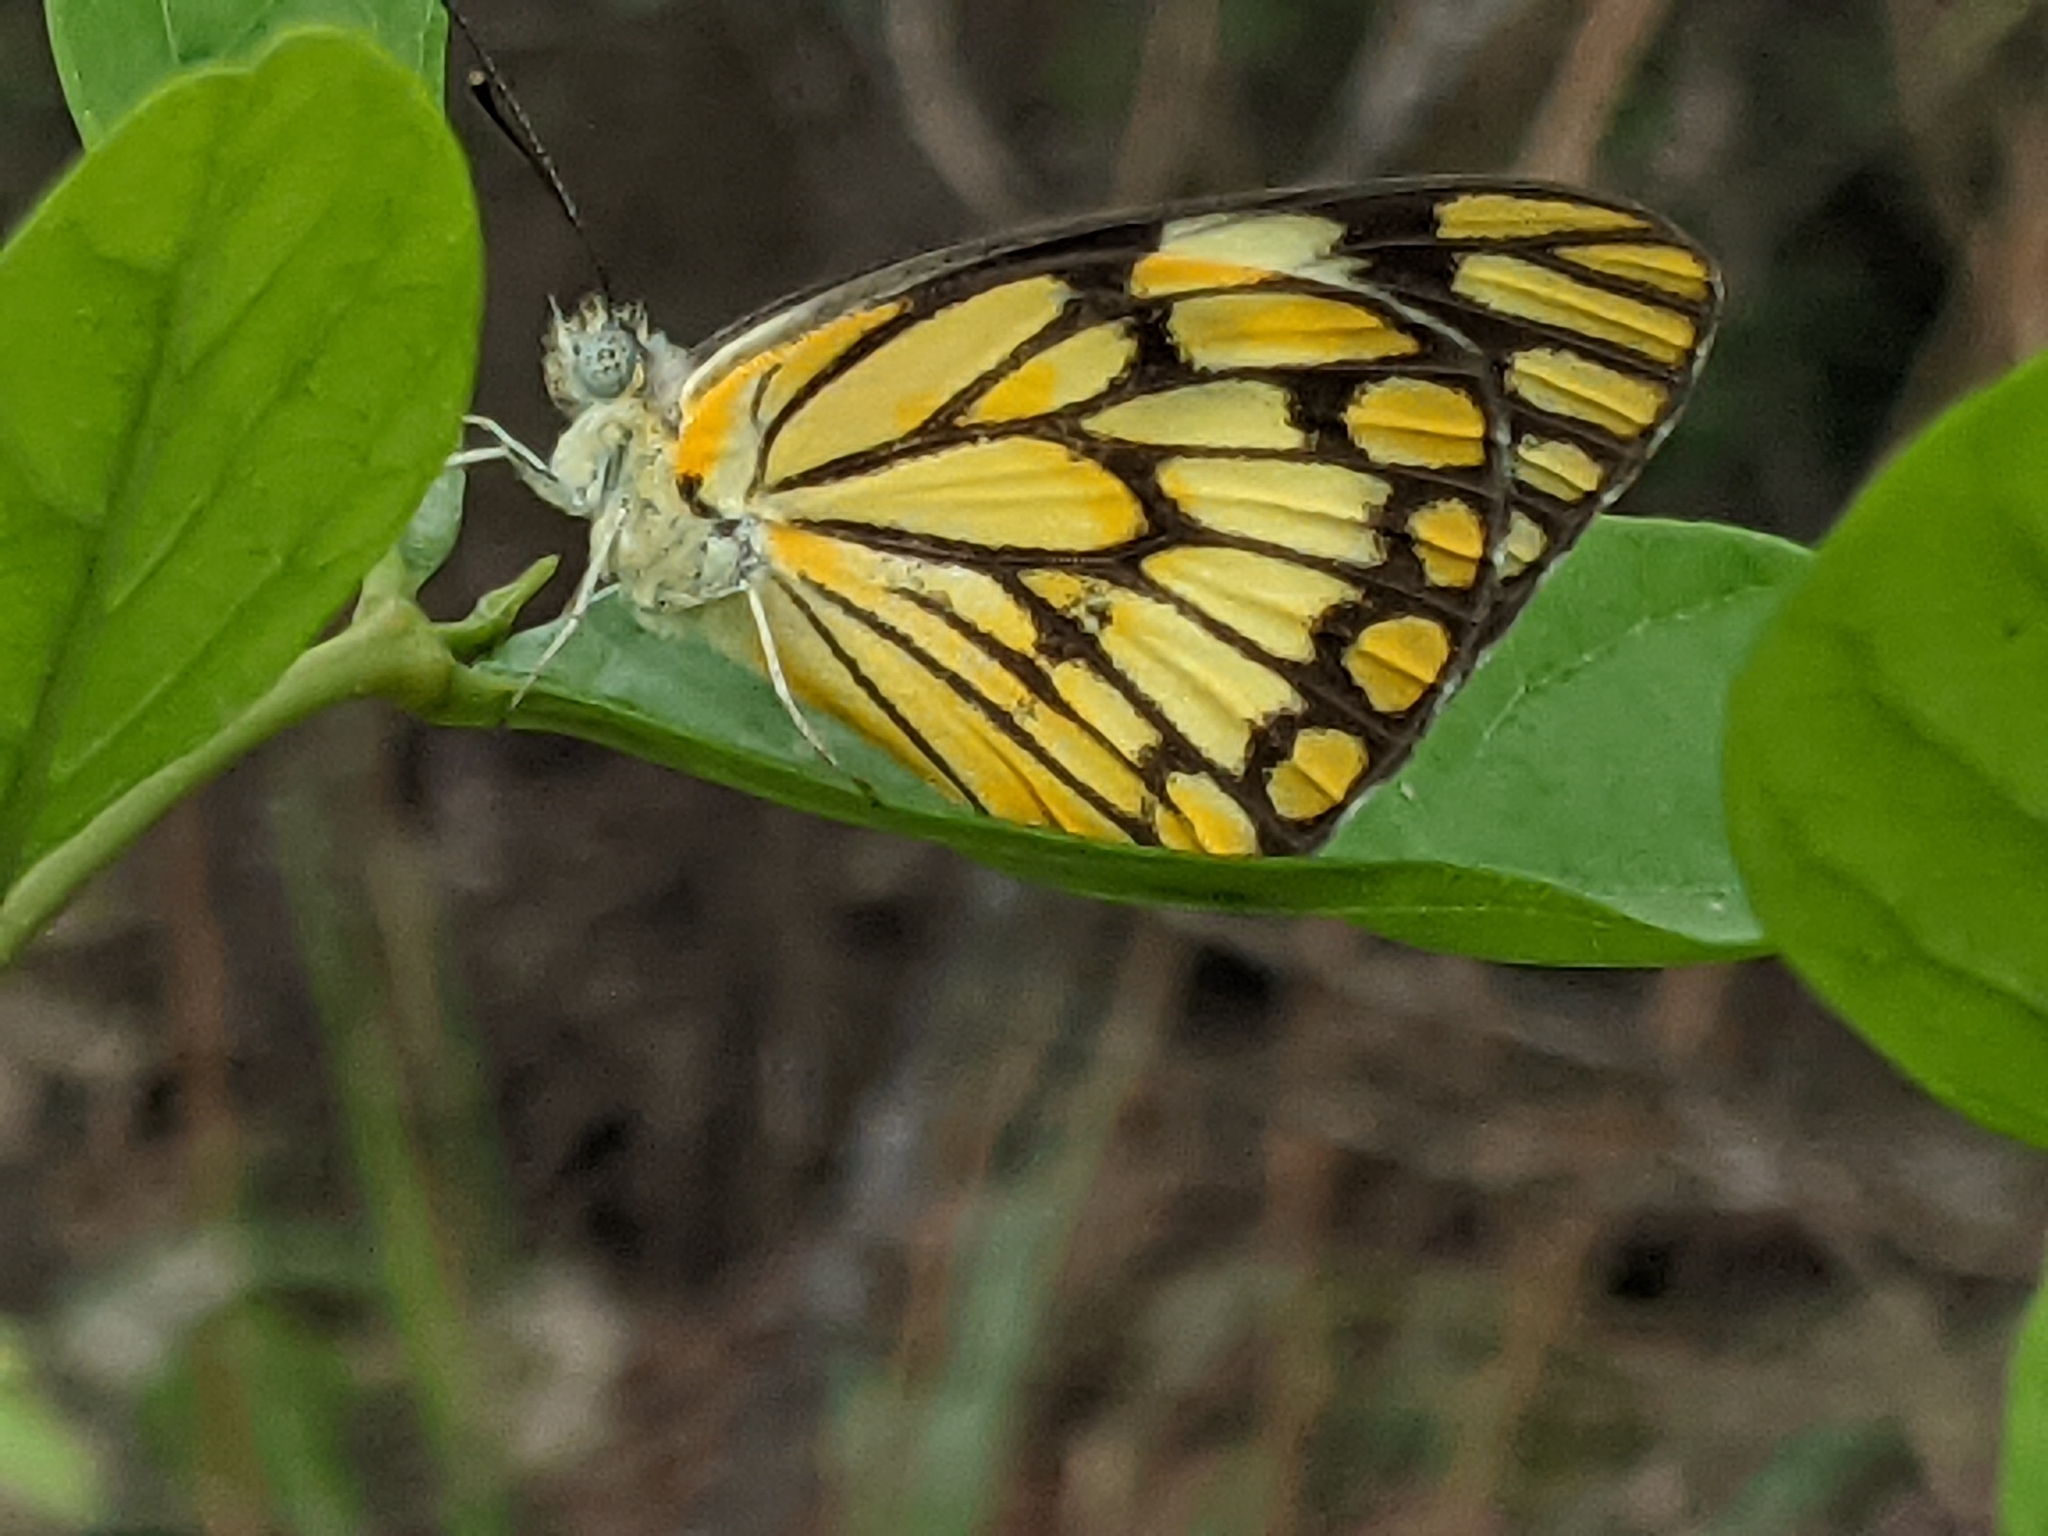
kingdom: Animalia
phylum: Arthropoda
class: Insecta
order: Lepidoptera
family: Pieridae
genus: Belenois
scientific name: Belenois aurota
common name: Brown-veined white
